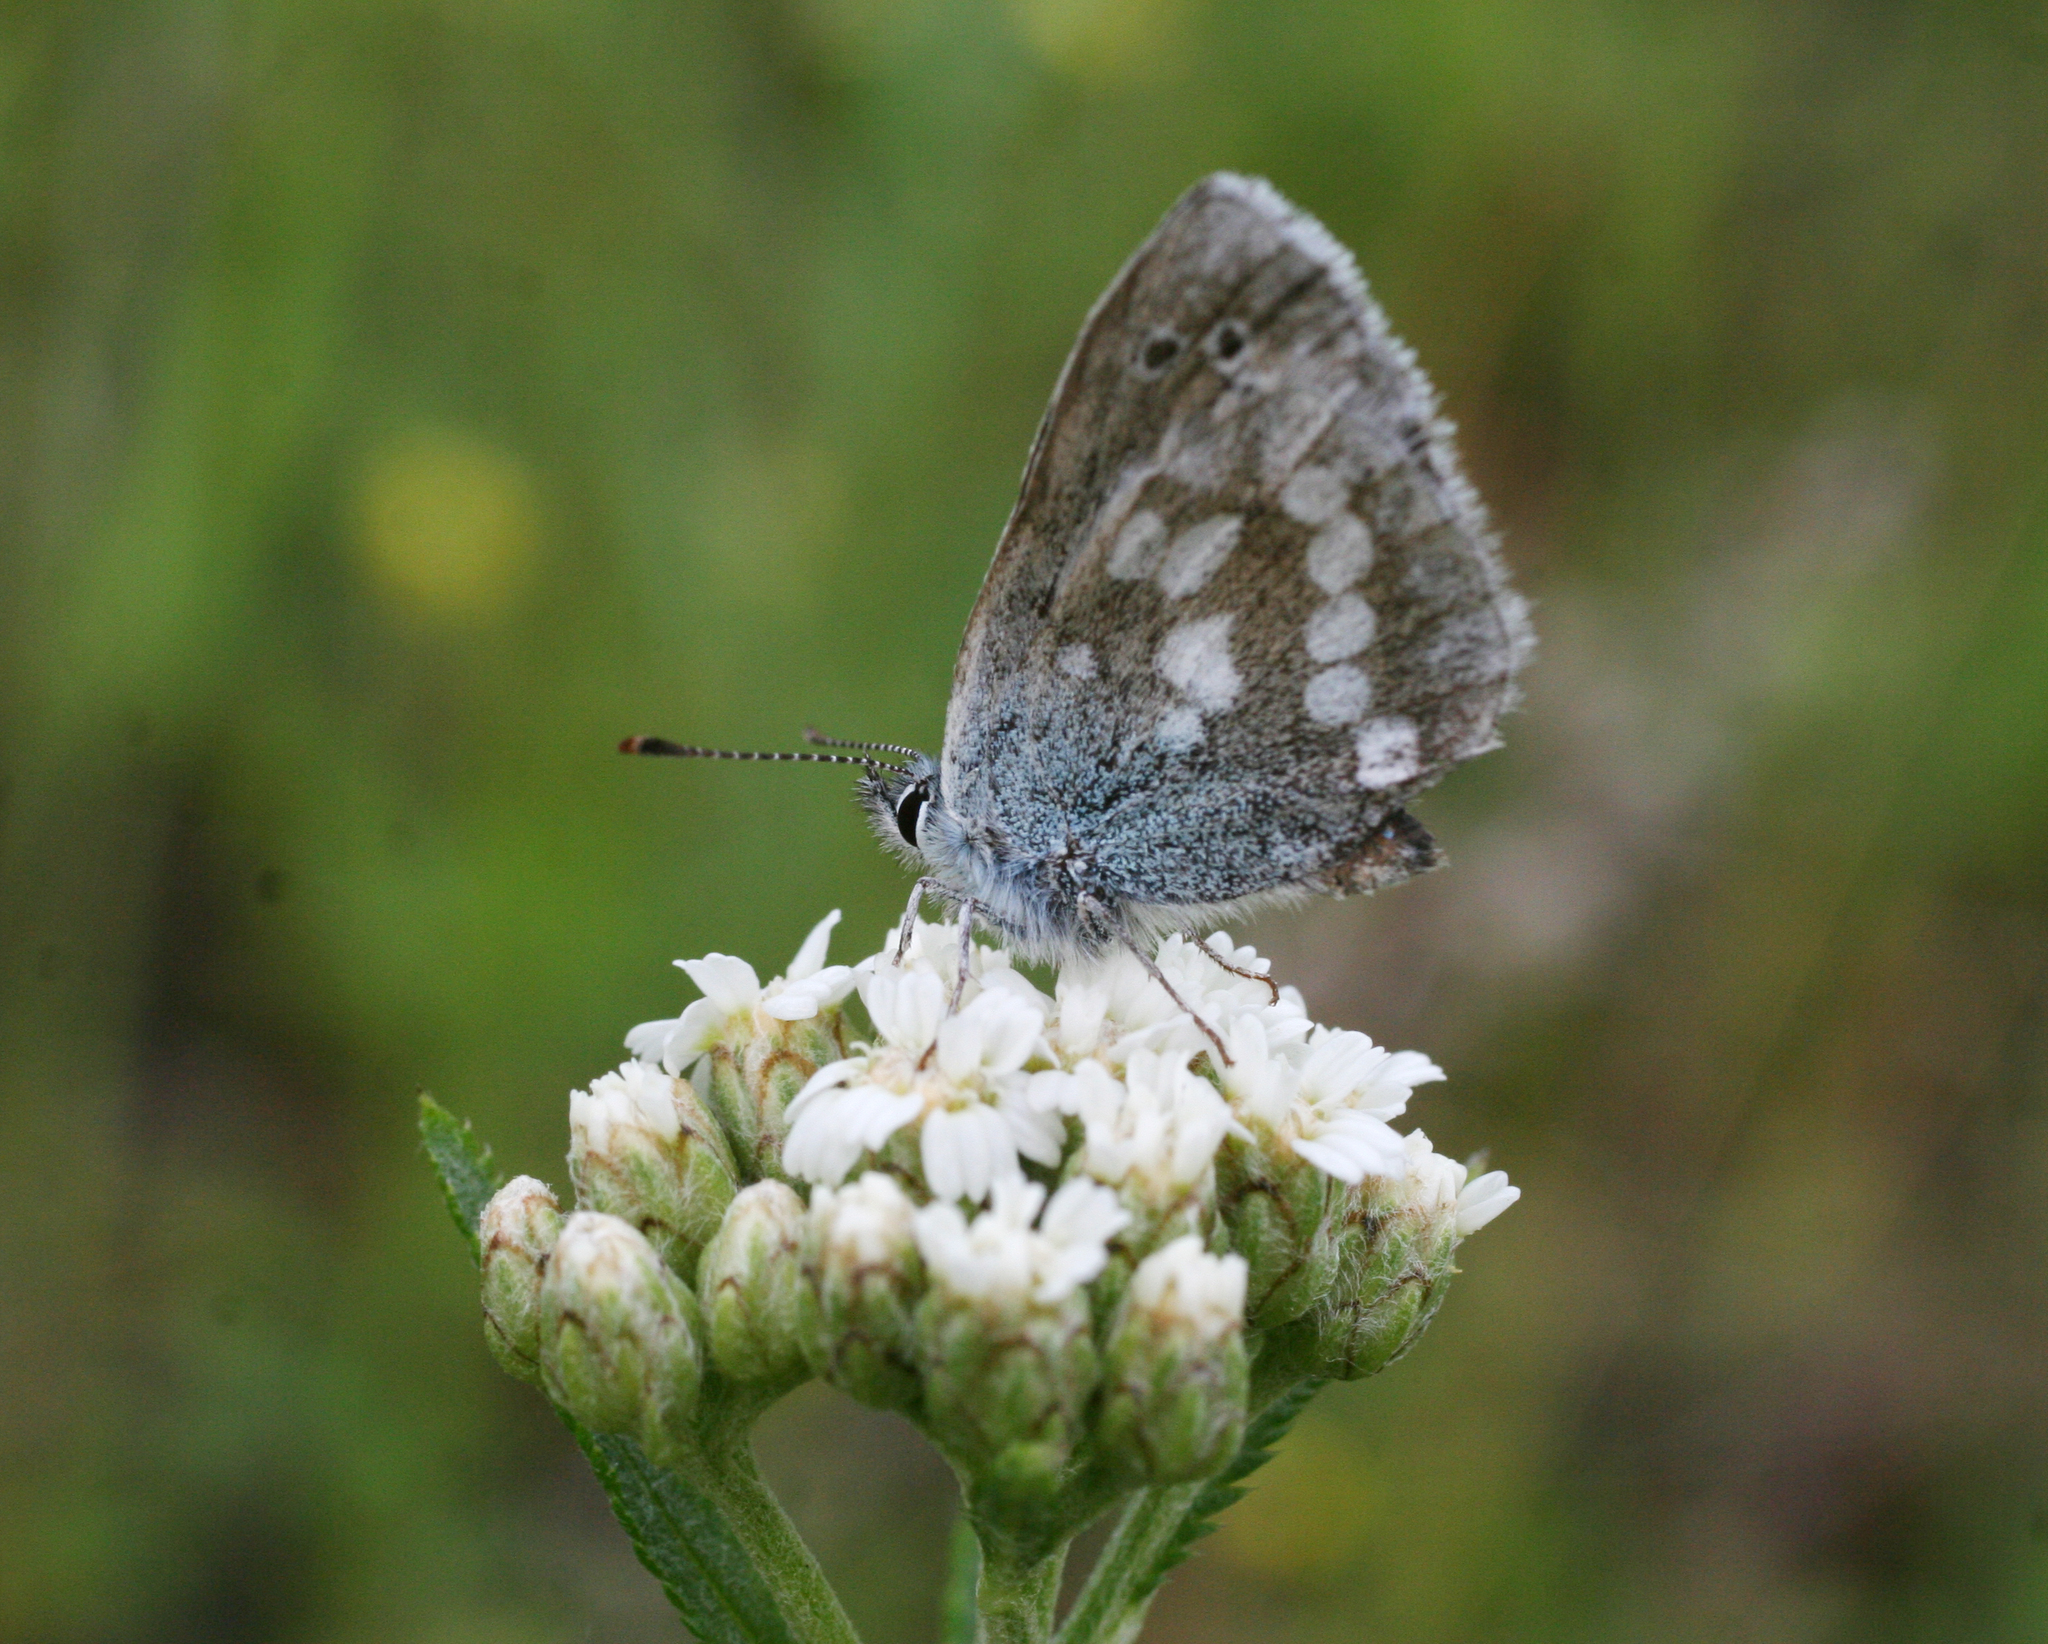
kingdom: Animalia
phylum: Arthropoda
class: Insecta
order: Lepidoptera
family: Lycaenidae
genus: Albulina
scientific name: Albulina orbitulus
